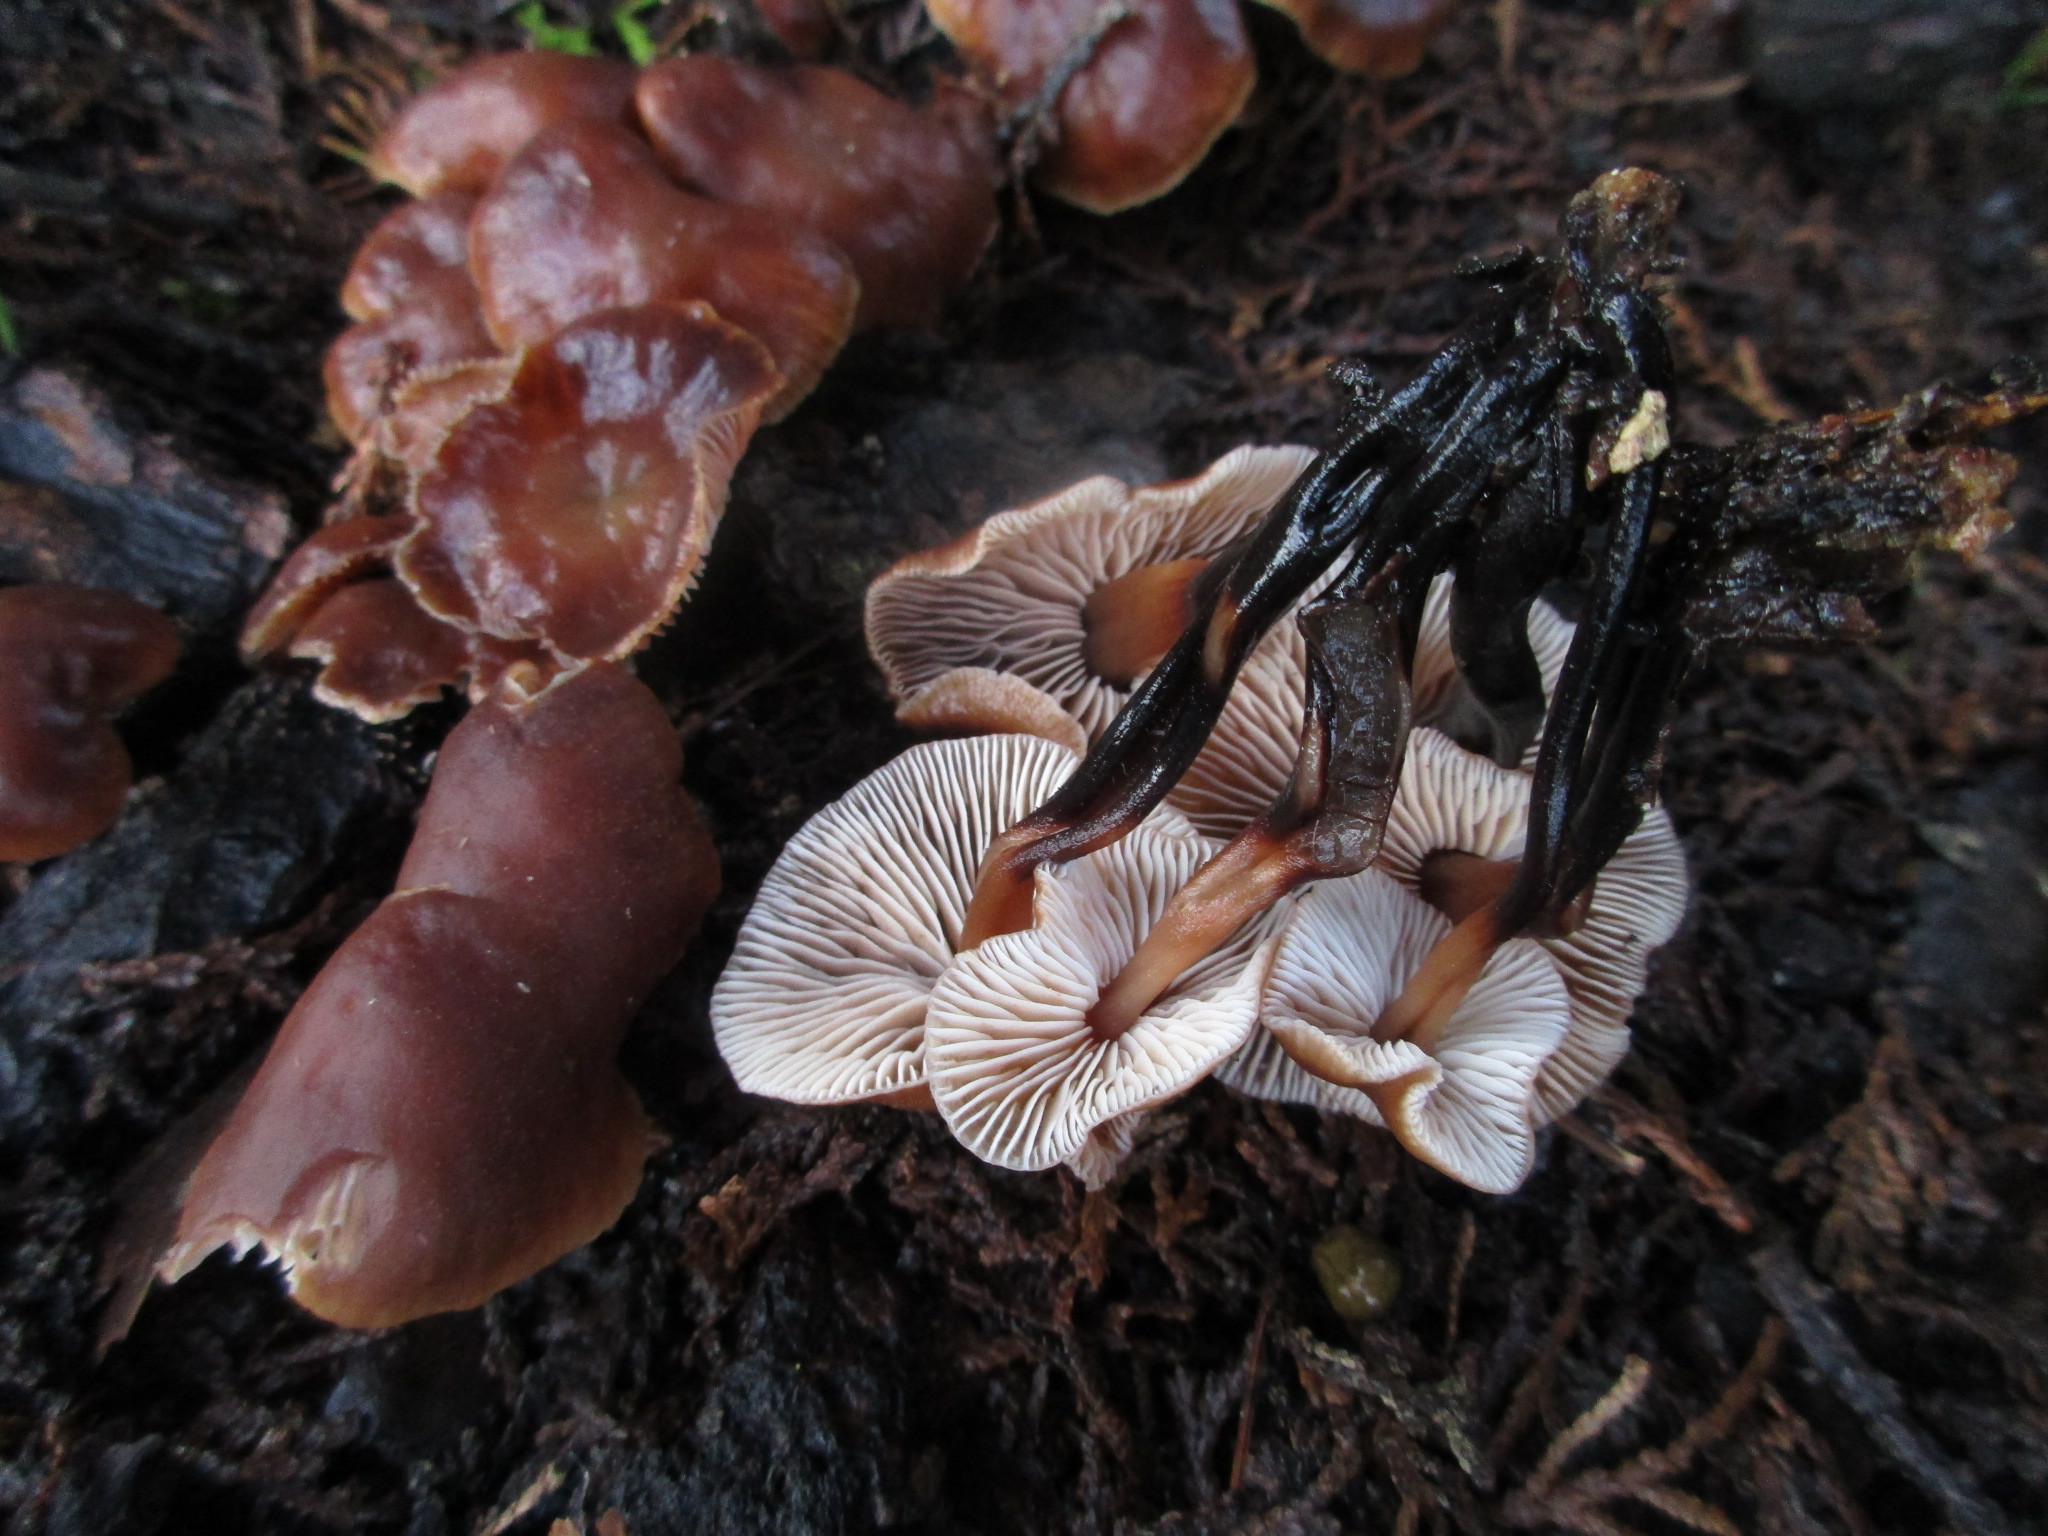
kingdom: Fungi
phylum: Basidiomycota
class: Agaricomycetes
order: Agaricales
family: Omphalotaceae
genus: Gymnopus
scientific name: Gymnopus brassicolens
